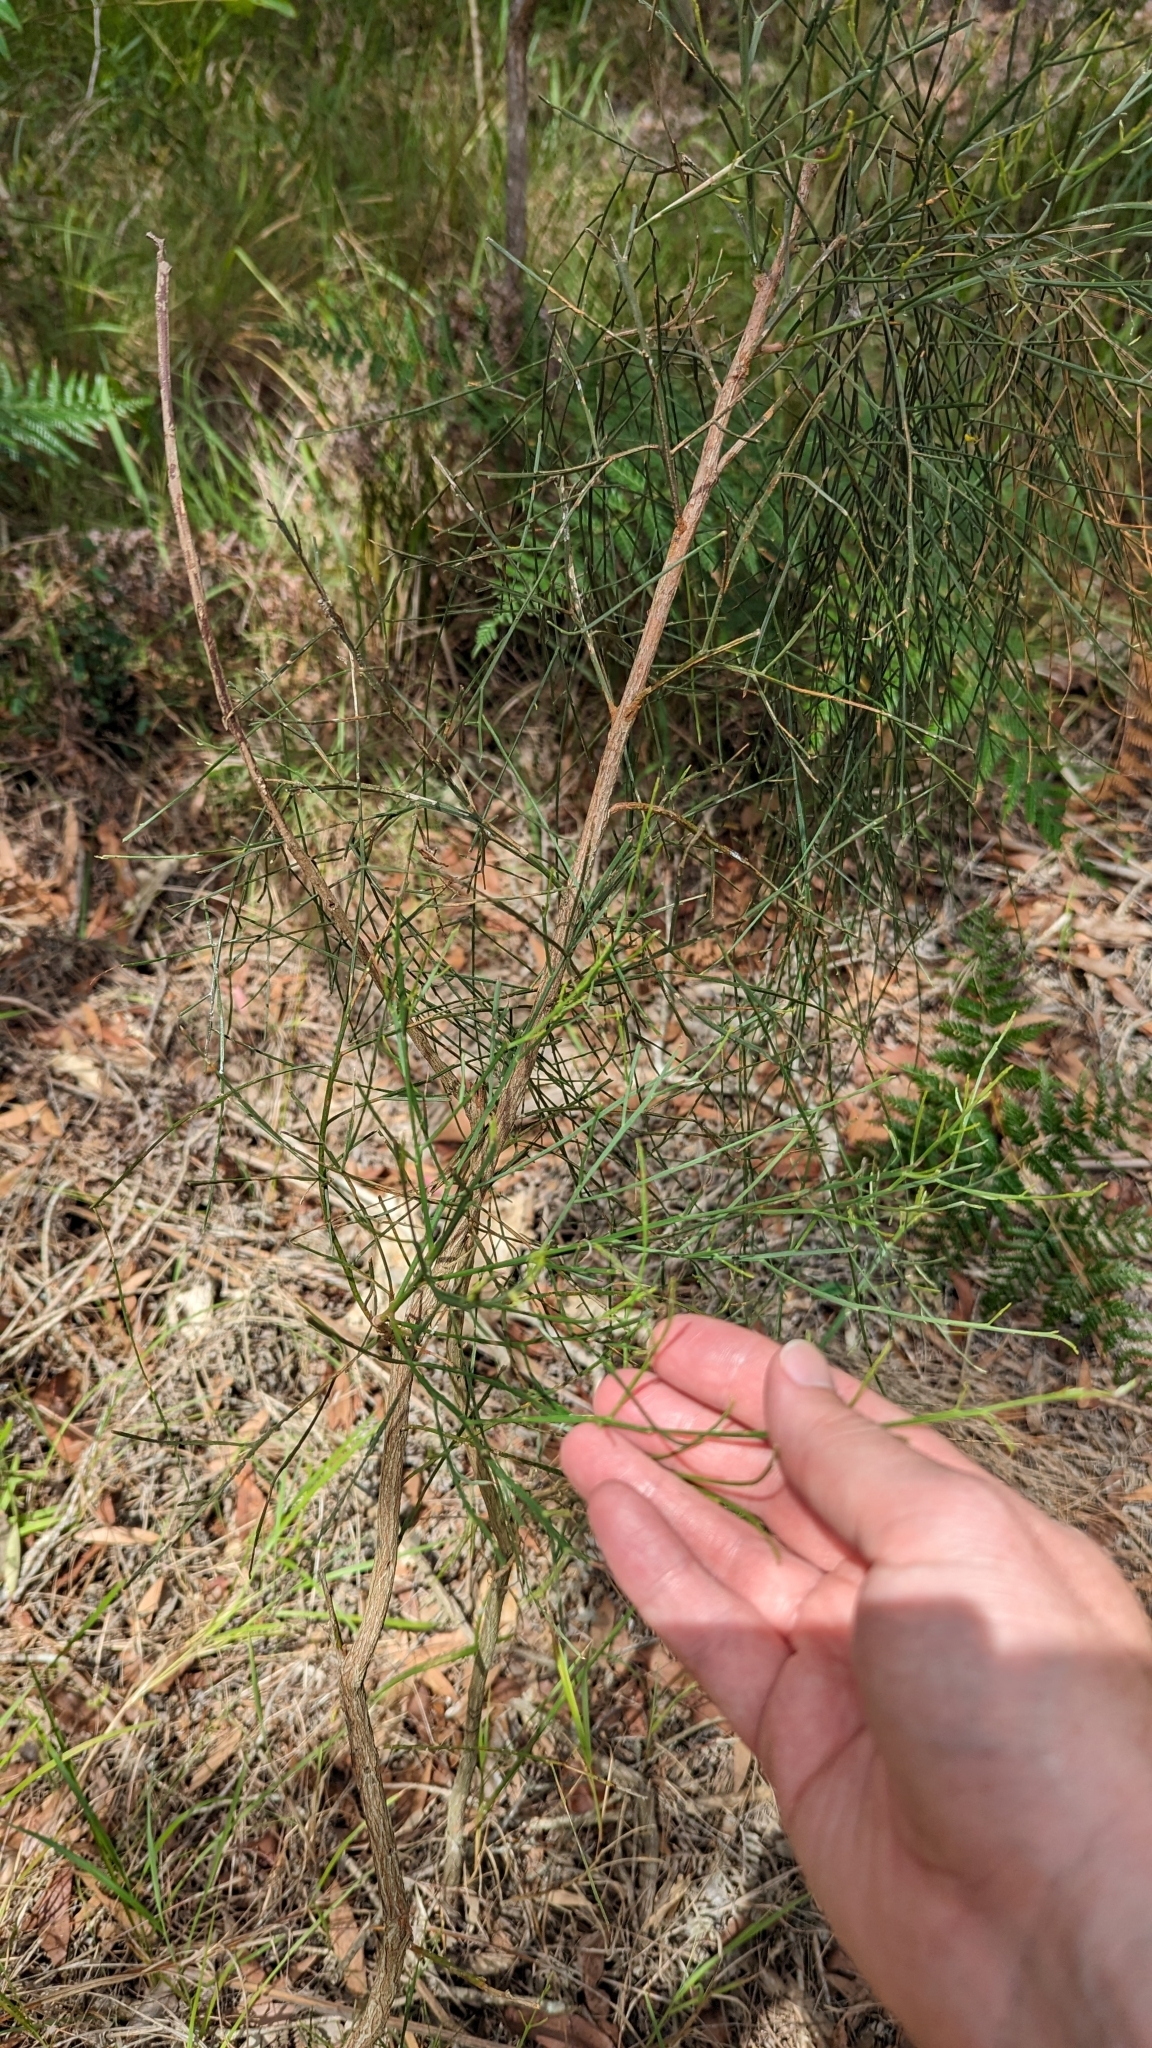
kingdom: Plantae
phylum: Tracheophyta
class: Magnoliopsida
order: Fabales
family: Fabaceae
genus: Jacksonia
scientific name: Jacksonia scoparia
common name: Dogwood
